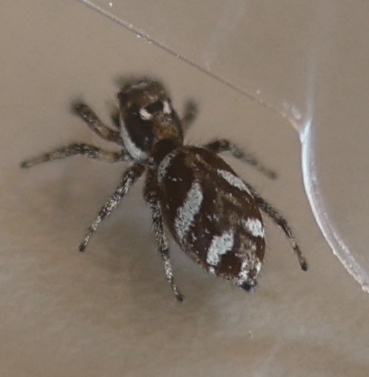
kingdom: Animalia
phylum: Arthropoda
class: Arachnida
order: Araneae
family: Salticidae
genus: Salticus
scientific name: Salticus scenicus
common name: Zebra jumper
